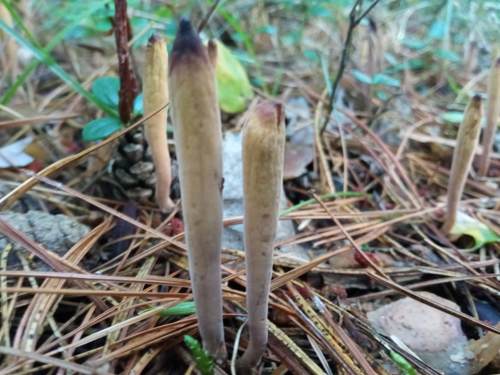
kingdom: Fungi
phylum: Basidiomycota
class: Agaricomycetes
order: Gomphales
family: Clavariadelphaceae
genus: Clavariadelphus
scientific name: Clavariadelphus ligula
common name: Ochre club
